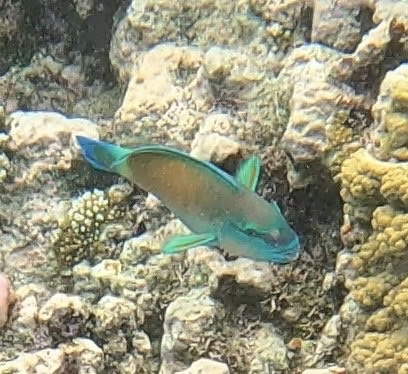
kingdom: Animalia
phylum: Chordata
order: Perciformes
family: Scaridae
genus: Chlorurus
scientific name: Chlorurus spilurus
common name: Bullethead parrotfish
